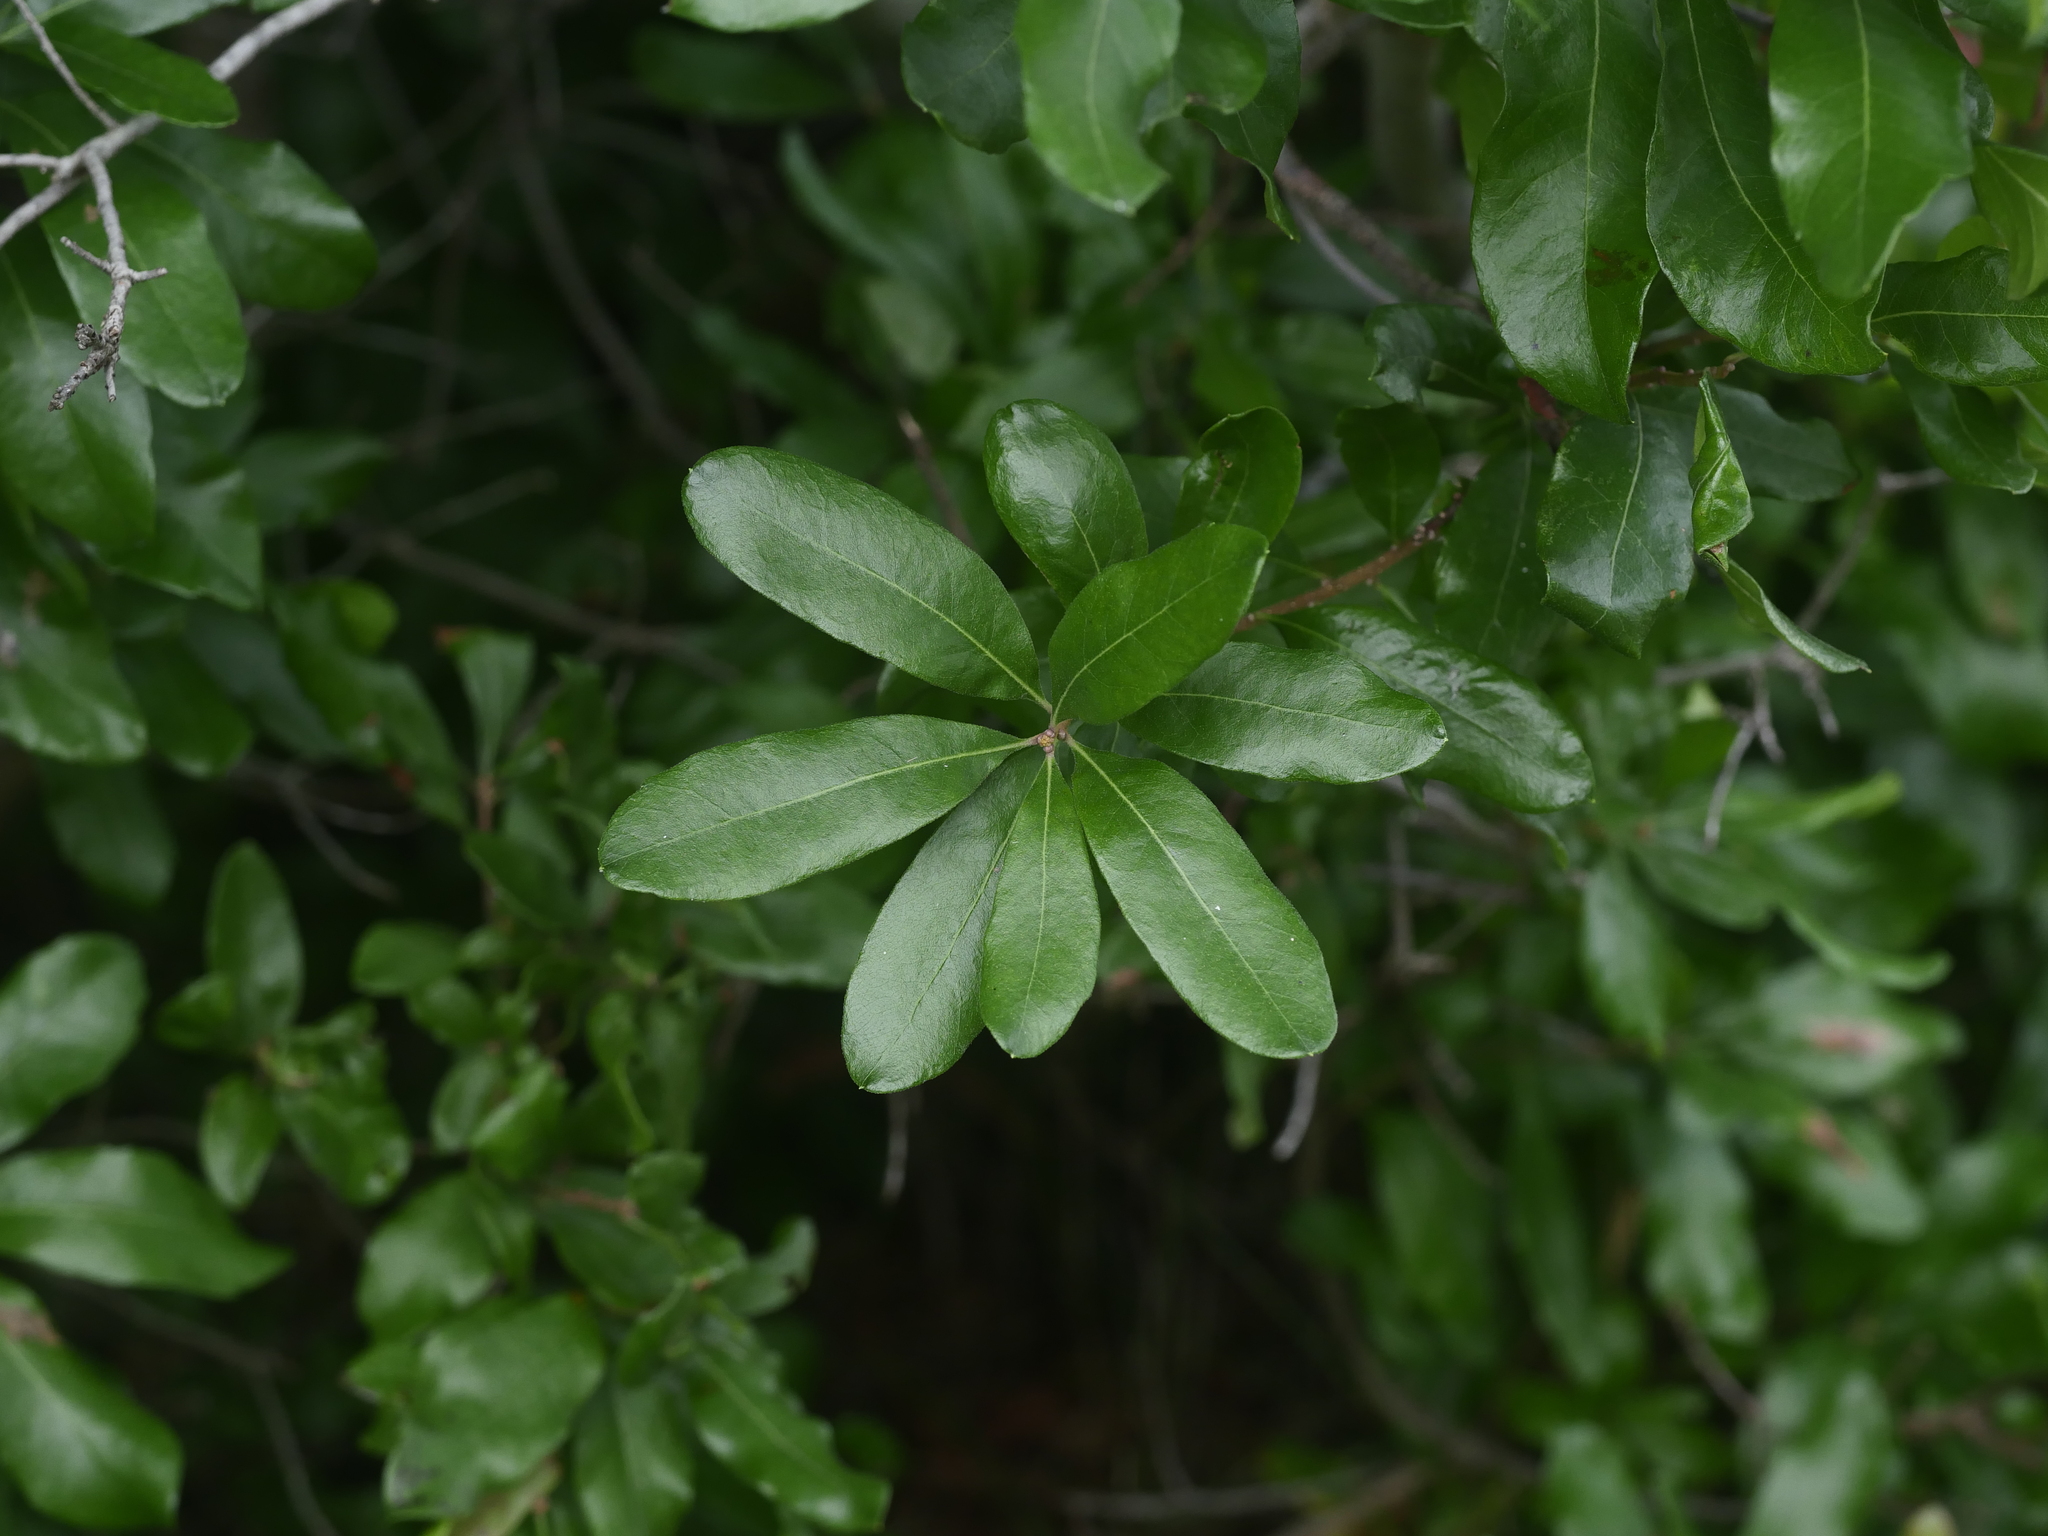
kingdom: Plantae
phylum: Tracheophyta
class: Magnoliopsida
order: Fagales
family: Myricaceae
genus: Morella
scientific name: Morella pensylvanica
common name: Northern bayberry
